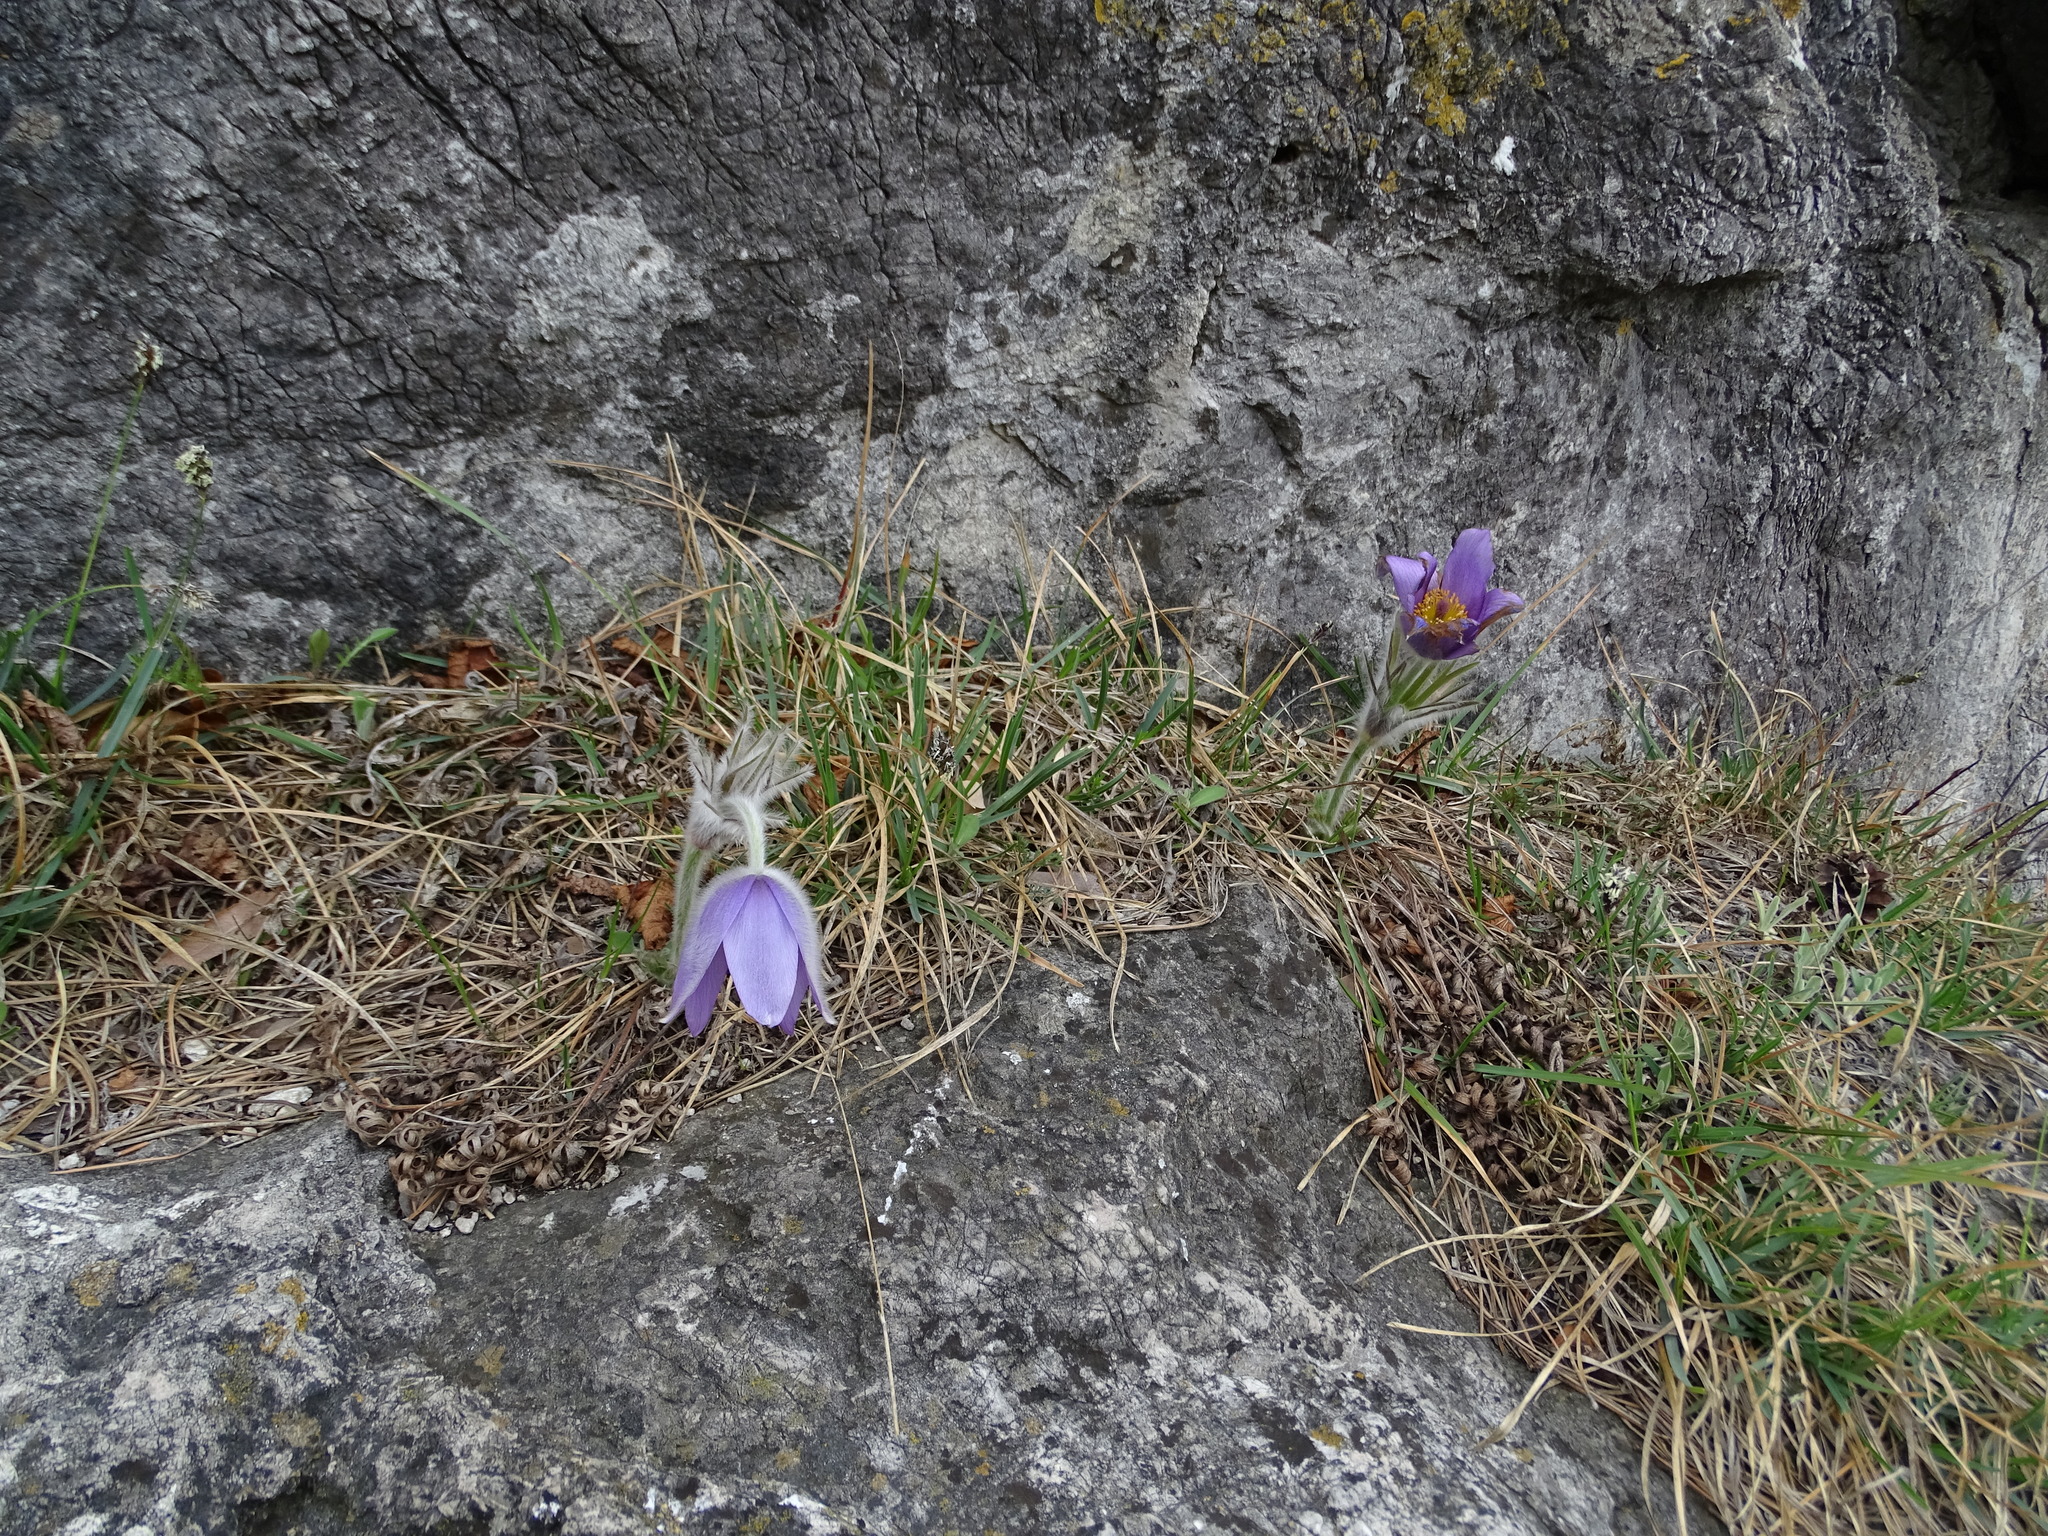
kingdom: Plantae
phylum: Tracheophyta
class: Magnoliopsida
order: Ranunculales
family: Ranunculaceae
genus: Pulsatilla
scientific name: Pulsatilla grandis
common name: Greater pasque flower
